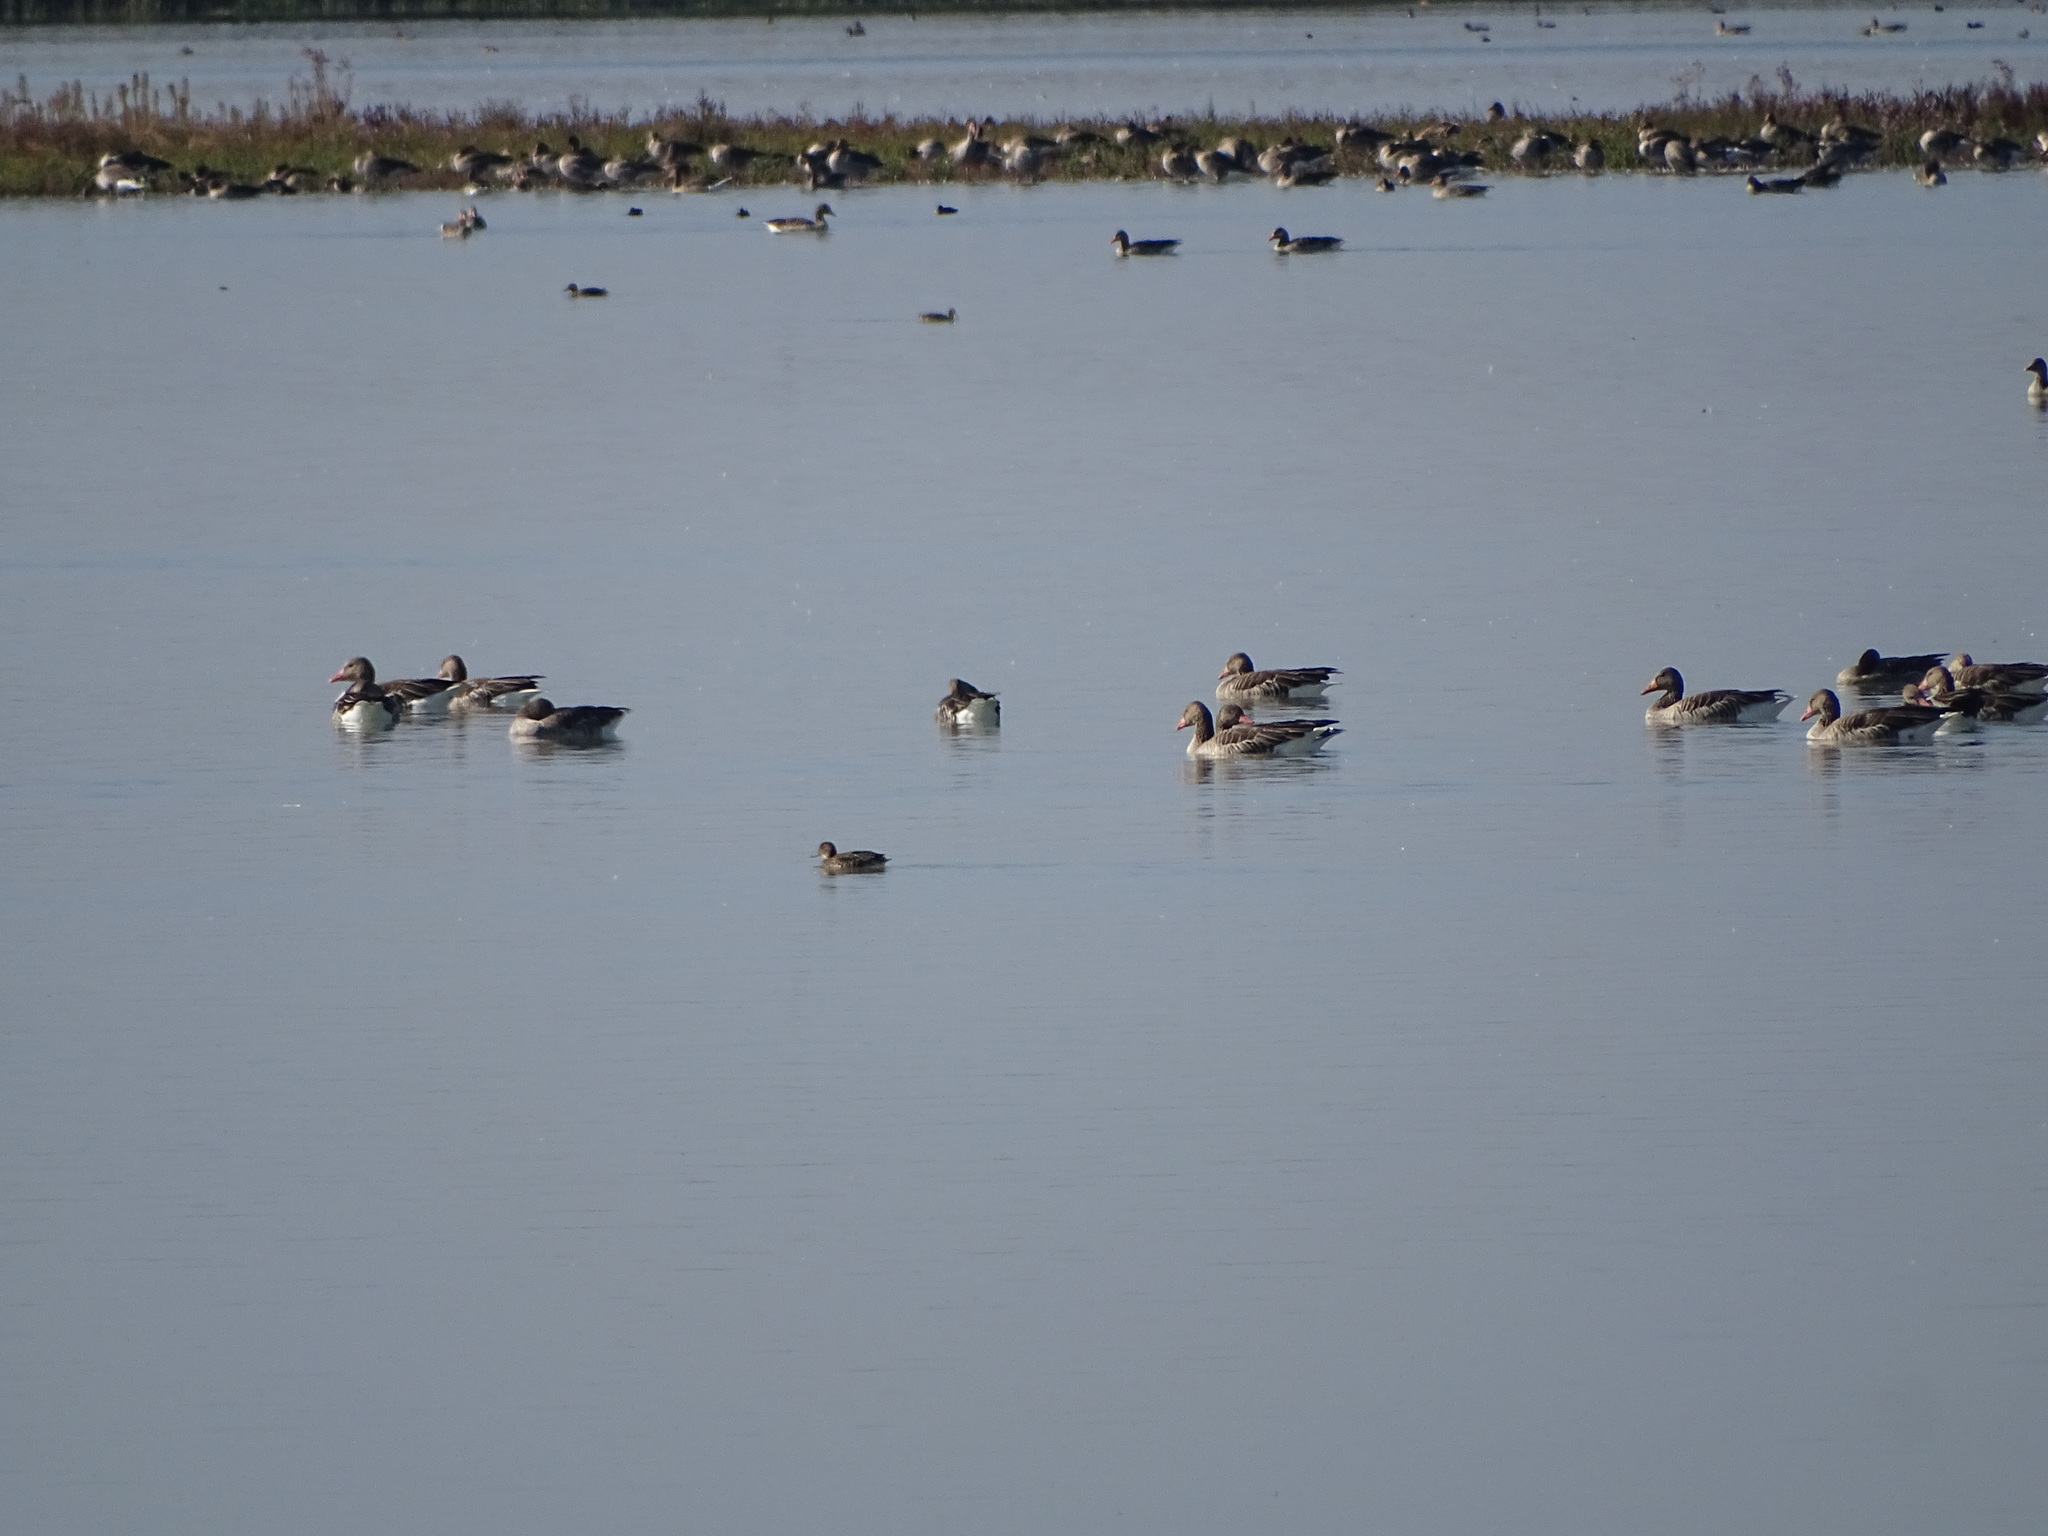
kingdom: Animalia
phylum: Chordata
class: Aves
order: Anseriformes
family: Anatidae
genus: Anser
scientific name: Anser anser
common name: Greylag goose
